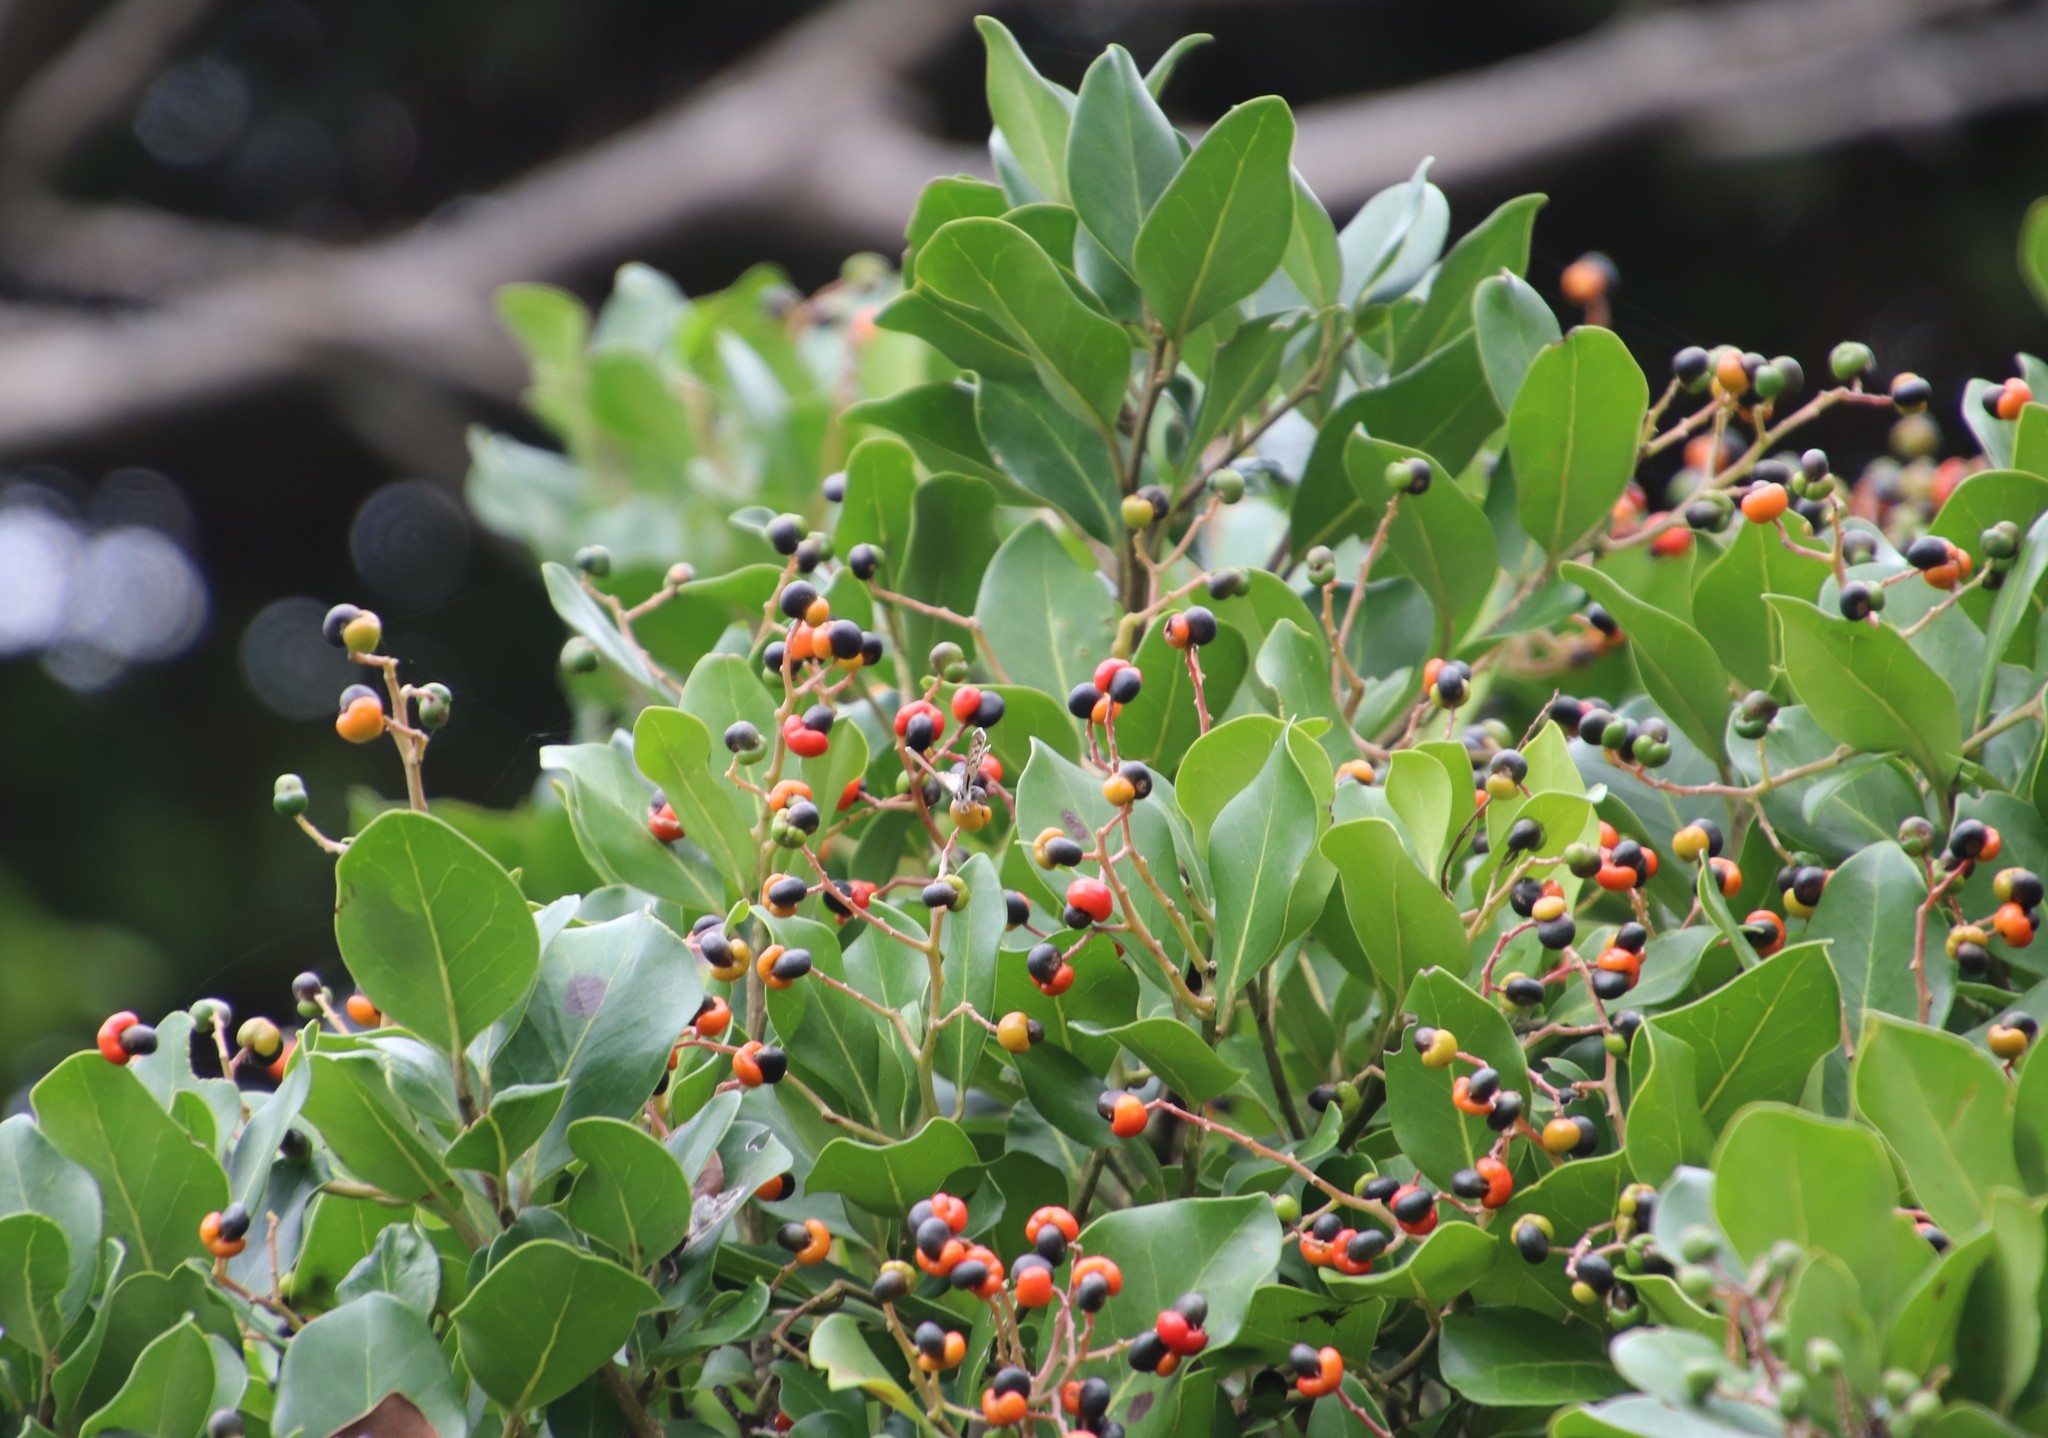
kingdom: Plantae
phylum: Tracheophyta
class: Magnoliopsida
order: Metteniusales
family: Metteniusaceae
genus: Apodytes
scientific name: Apodytes dimidiata
